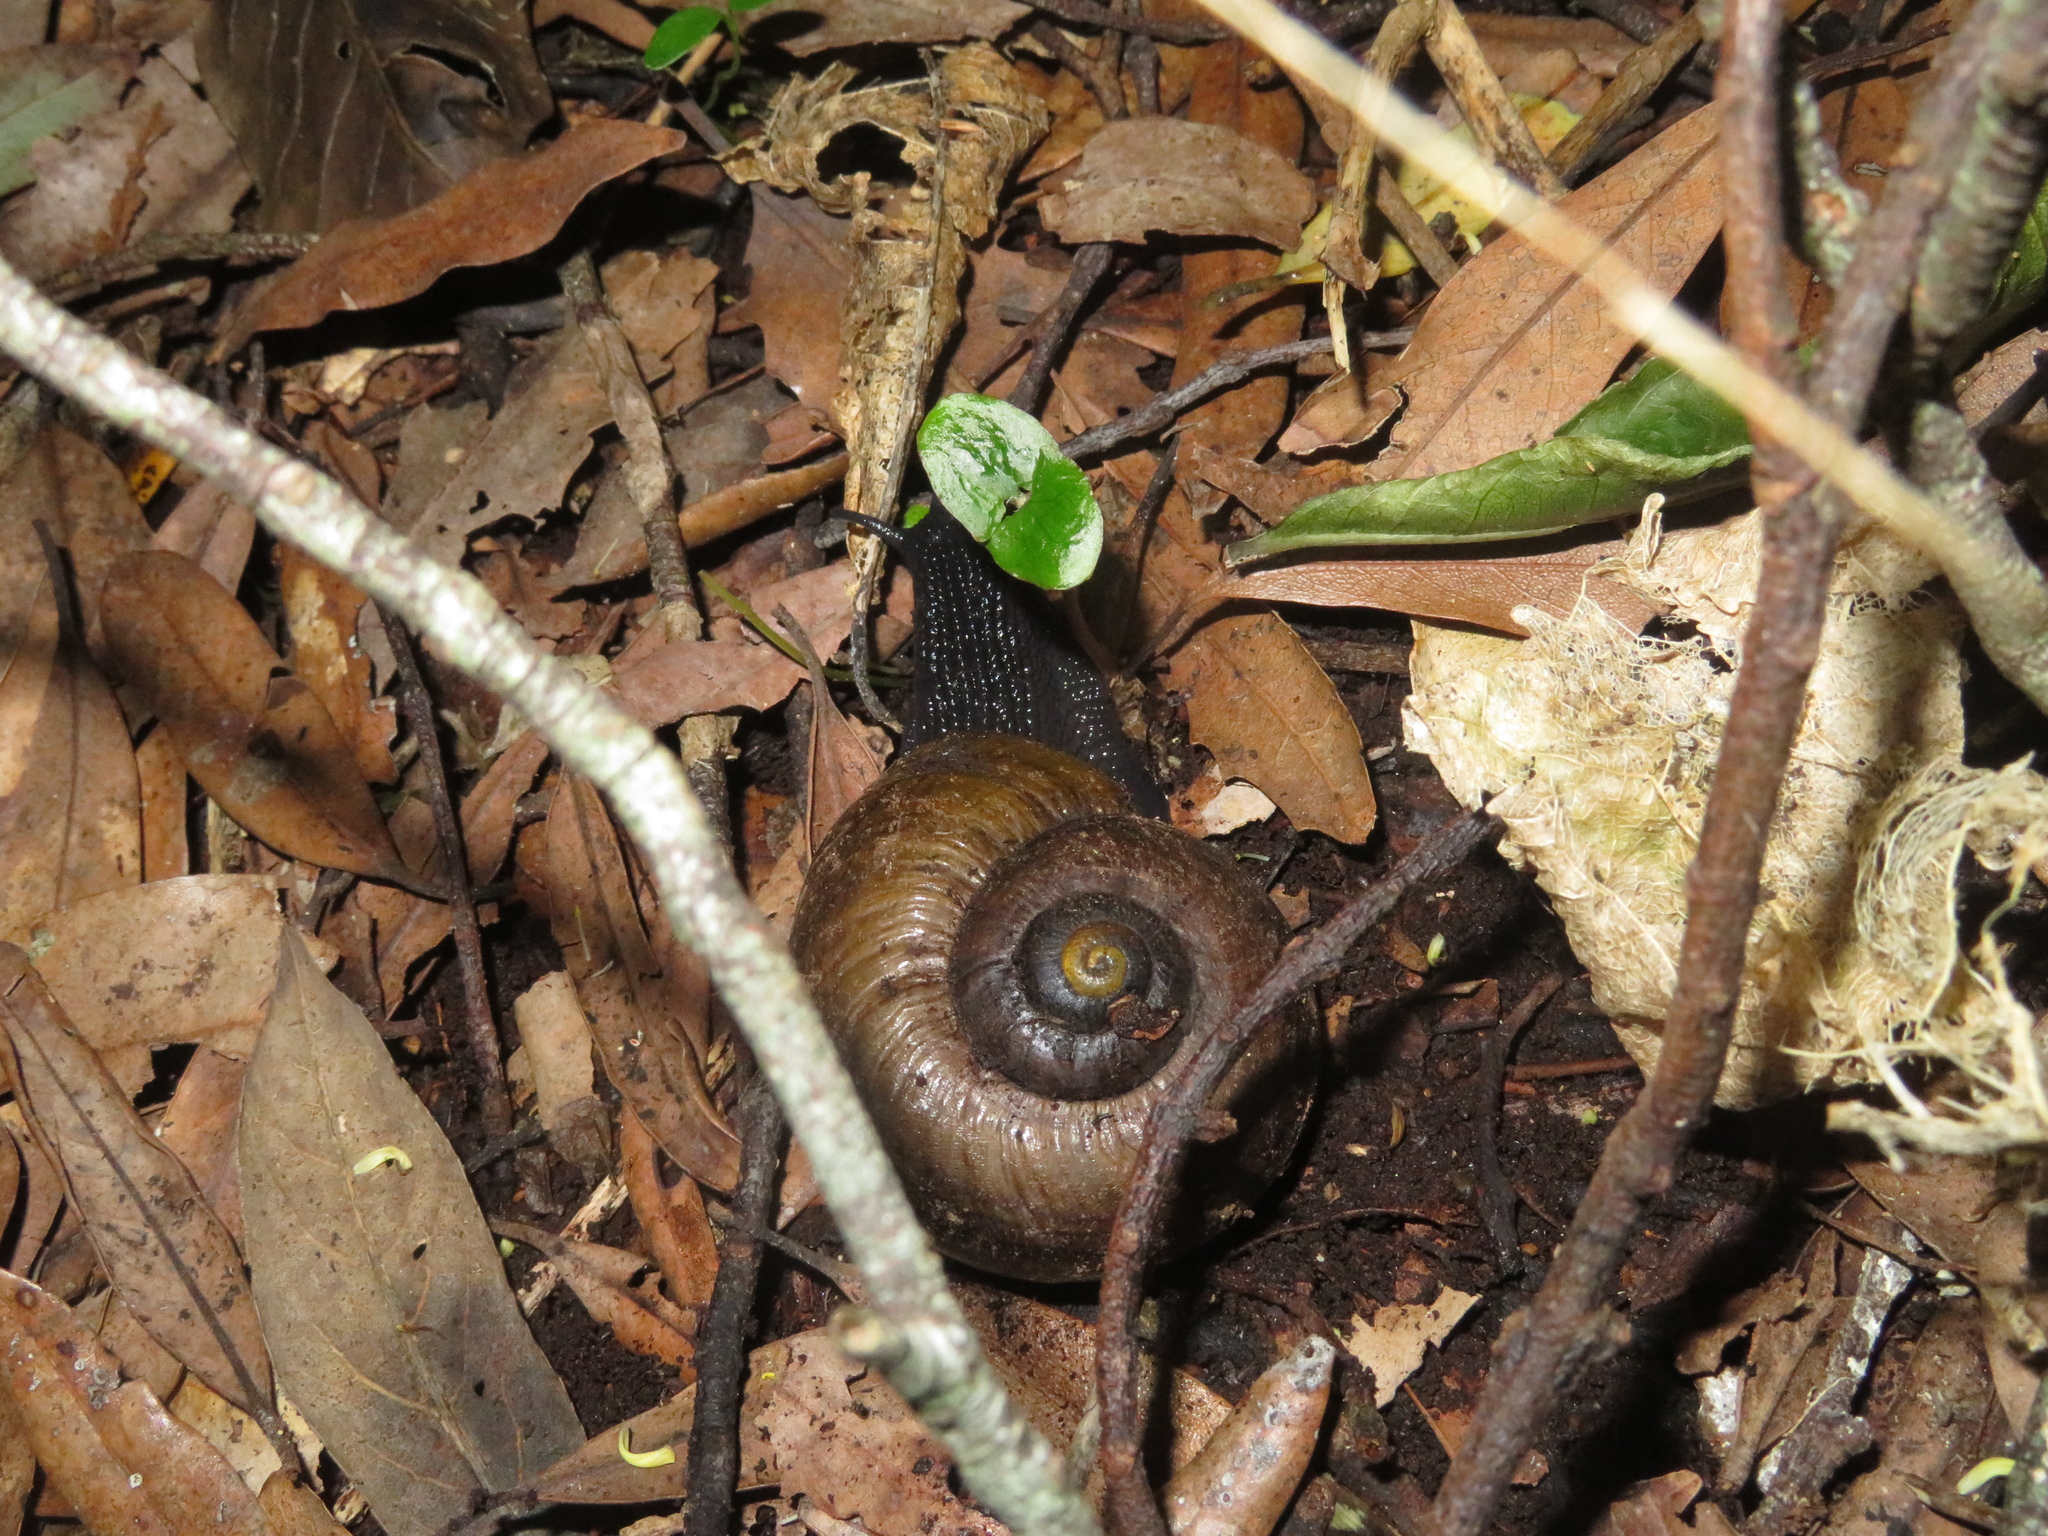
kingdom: Animalia
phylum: Mollusca
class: Gastropoda
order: Stylommatophora
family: Rhytididae
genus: Powelliphanta
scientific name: Powelliphanta traversi
